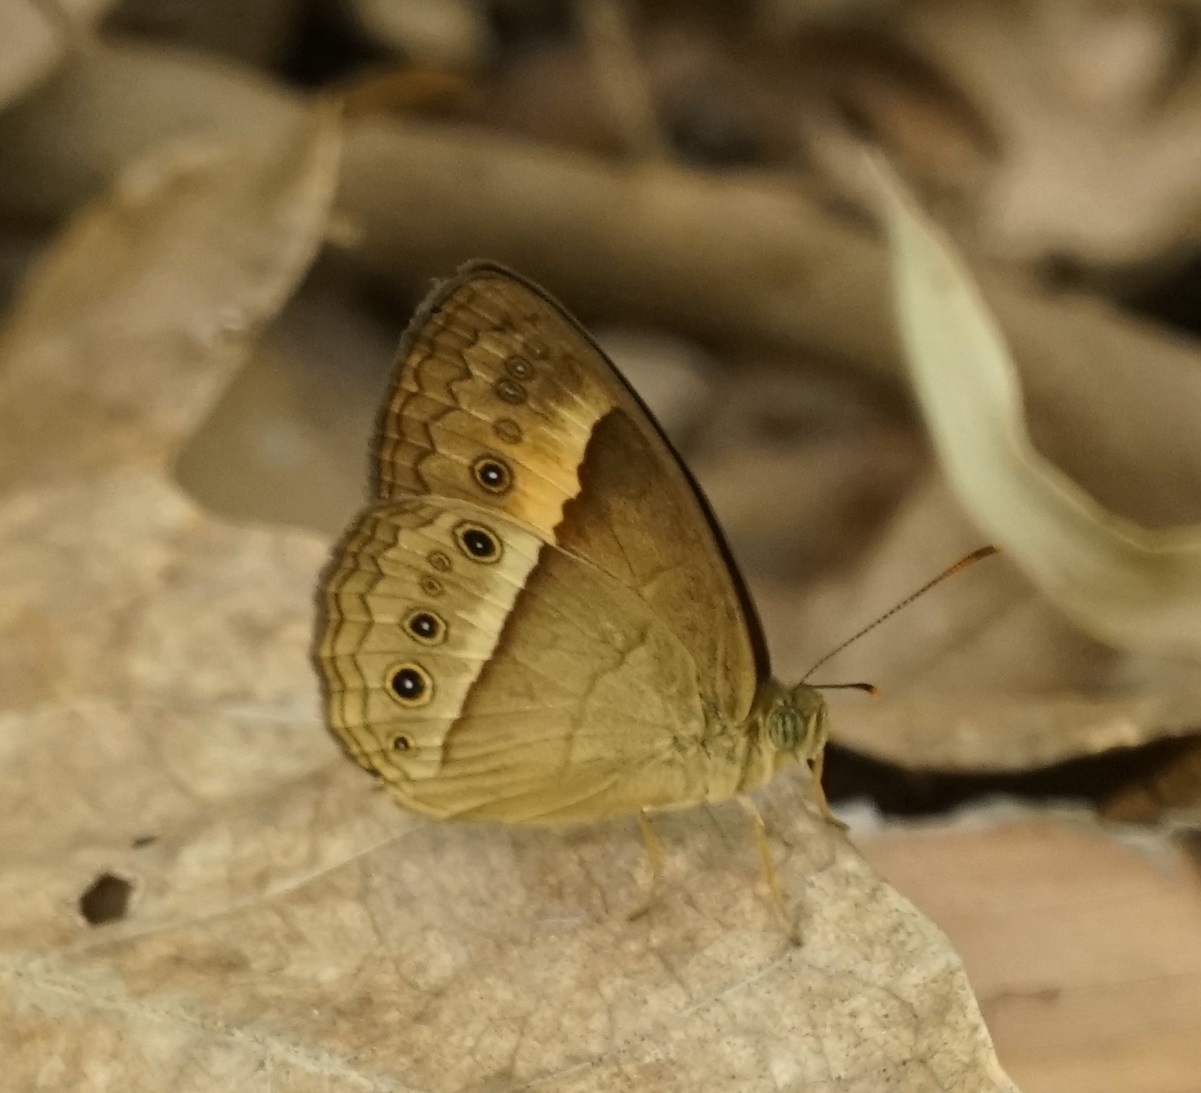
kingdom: Animalia
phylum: Arthropoda
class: Insecta
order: Lepidoptera
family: Nymphalidae
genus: Mycalesis
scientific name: Mycalesis terminus
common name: Orange bushbrown
